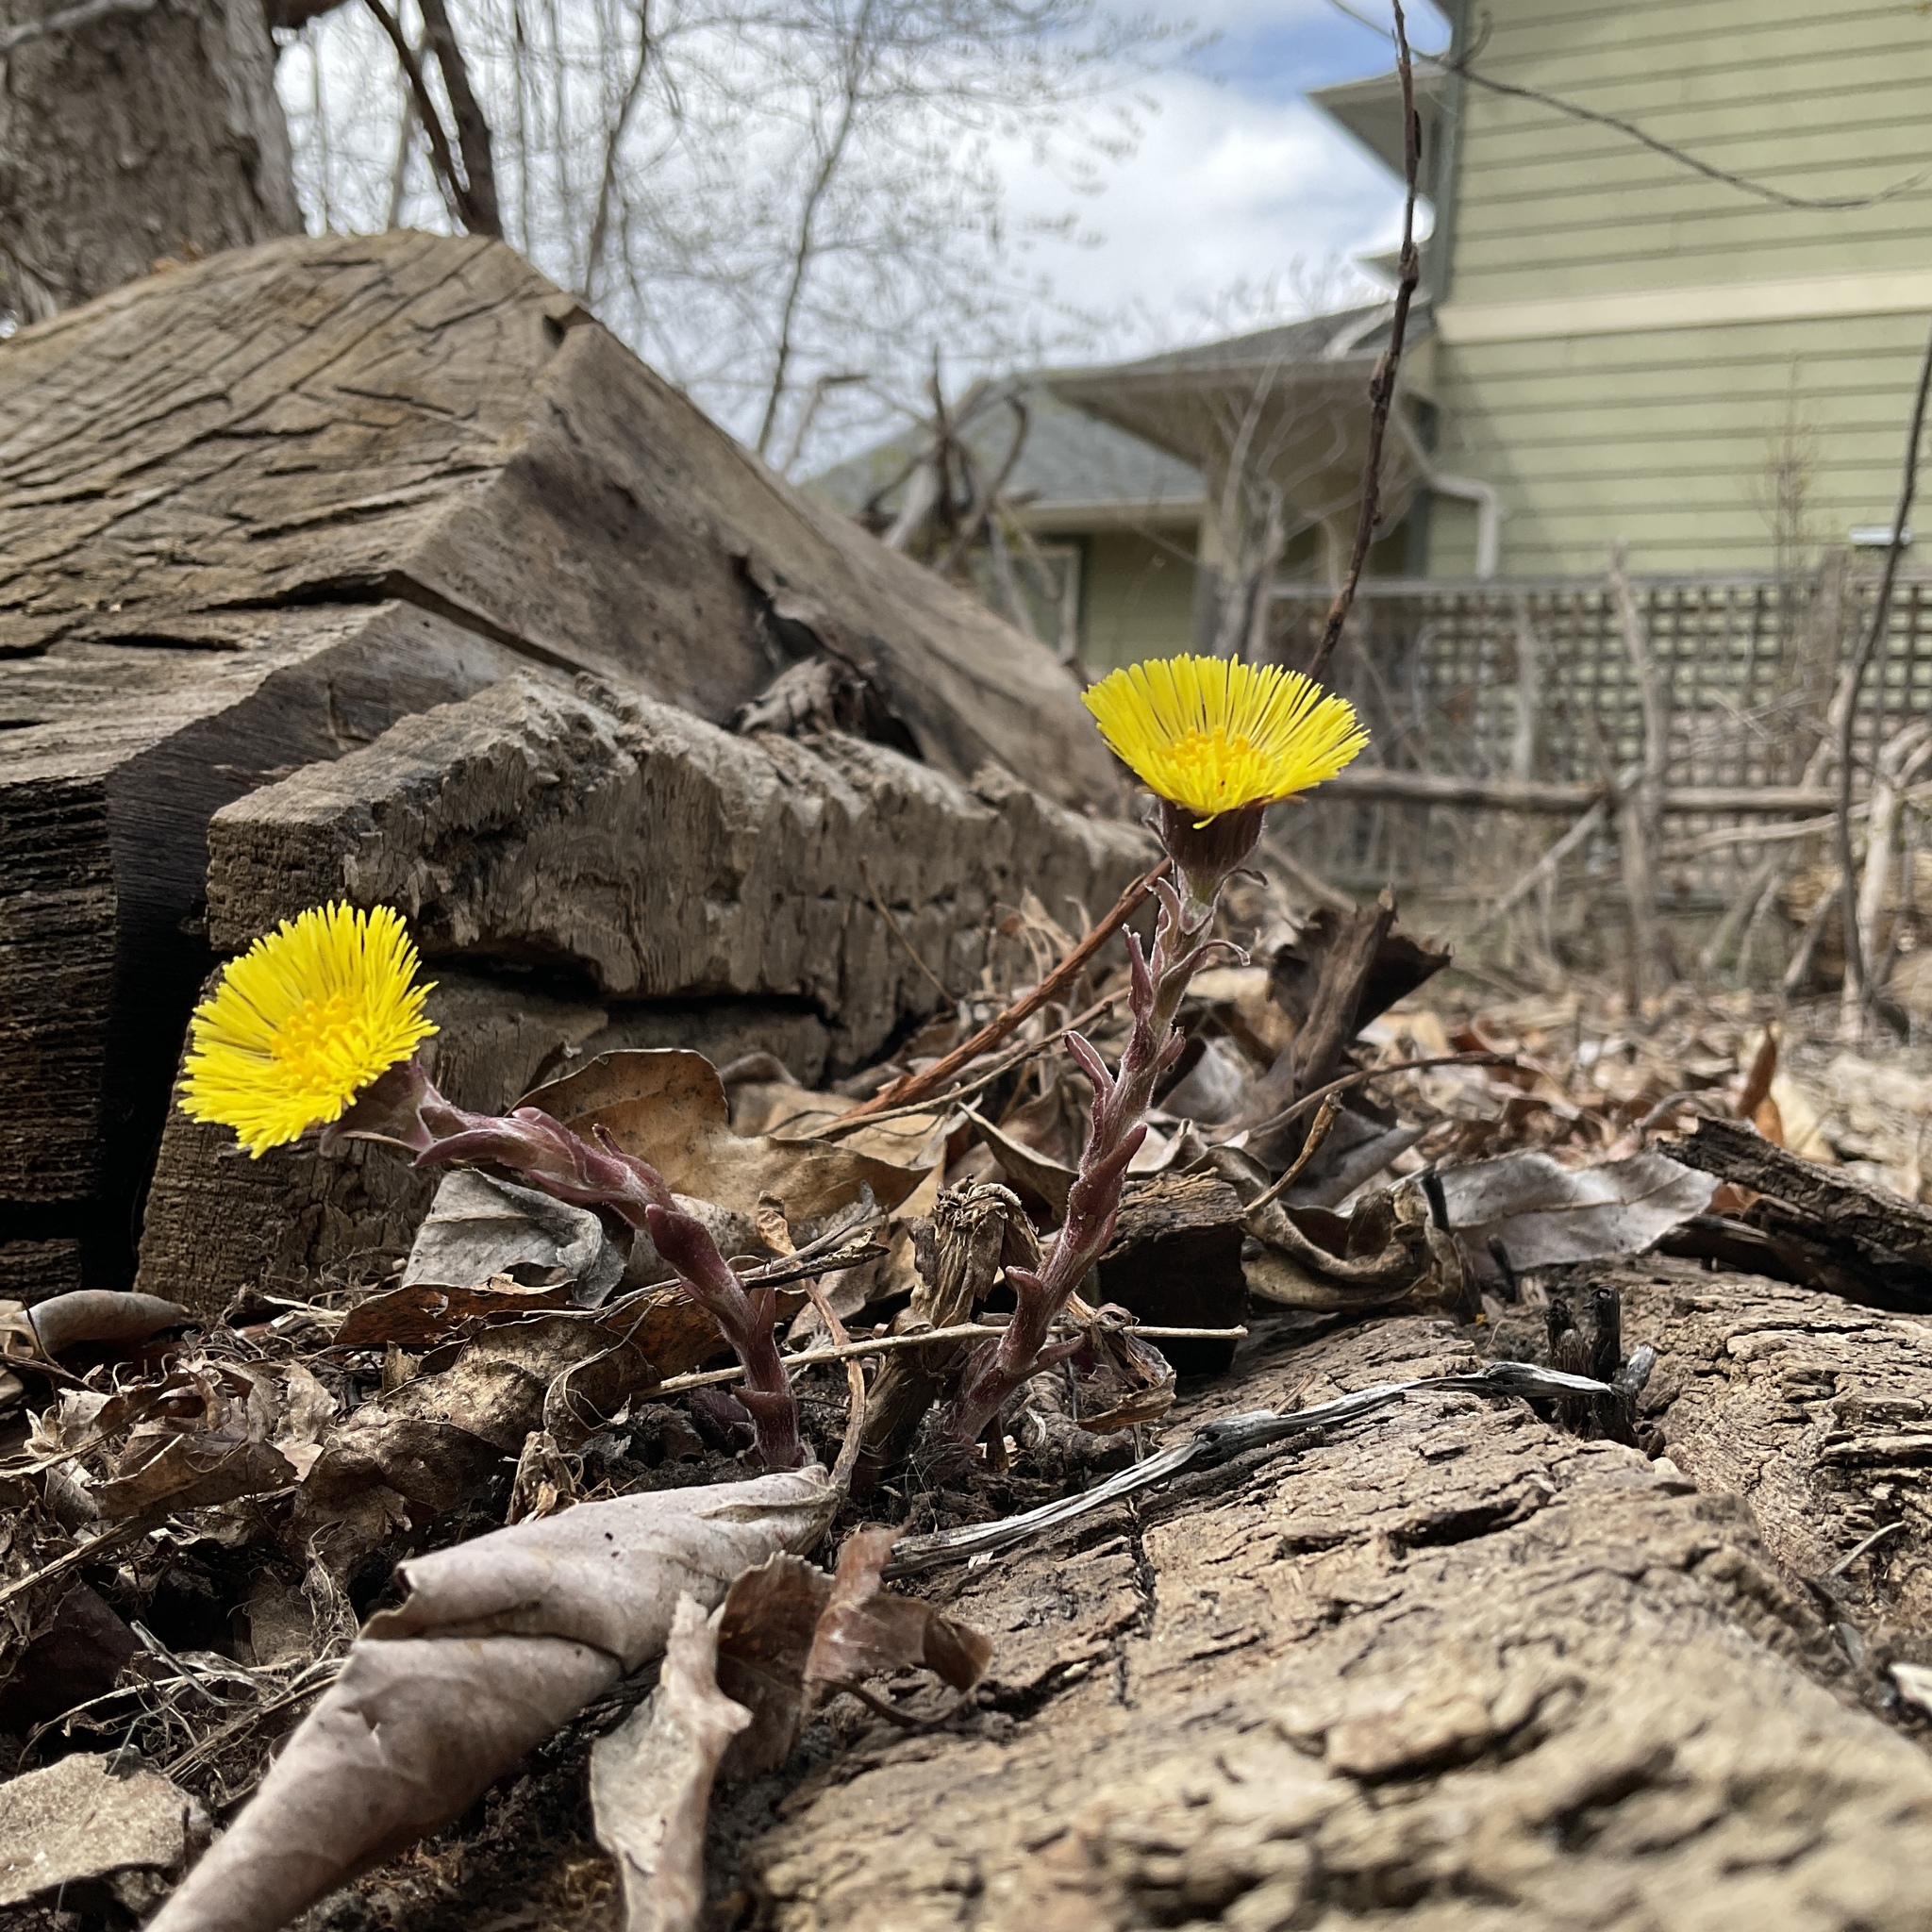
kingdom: Plantae
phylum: Tracheophyta
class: Magnoliopsida
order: Asterales
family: Asteraceae
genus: Tussilago
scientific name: Tussilago farfara
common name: Coltsfoot
